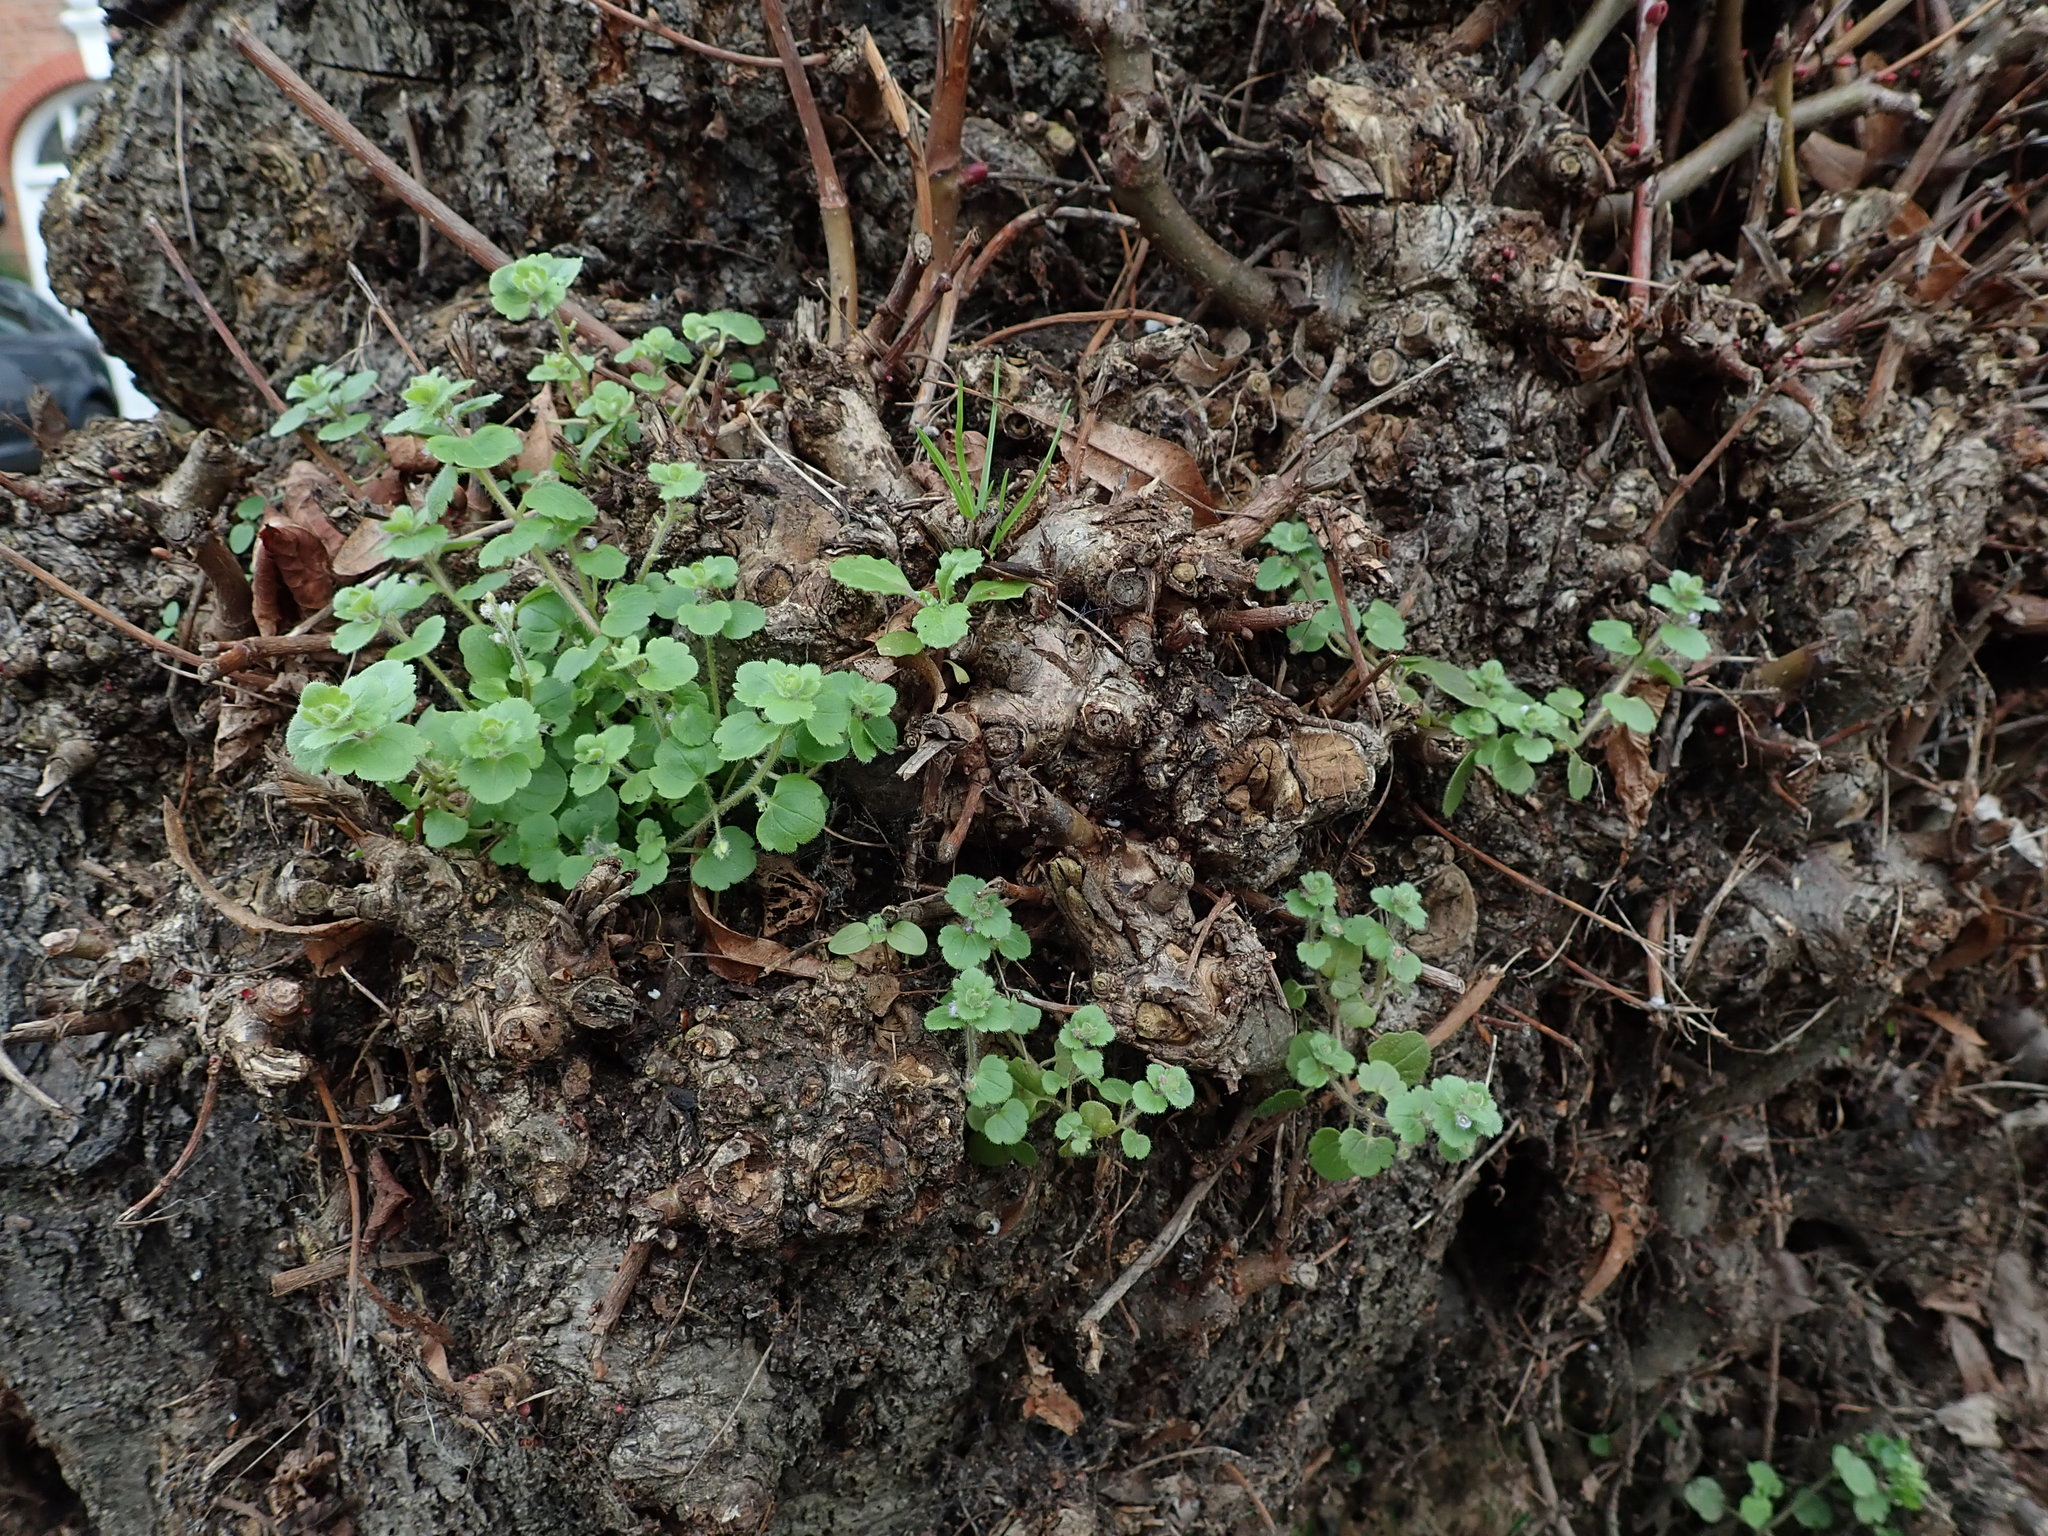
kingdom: Plantae
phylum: Tracheophyta
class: Magnoliopsida
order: Lamiales
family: Plantaginaceae
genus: Veronica
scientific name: Veronica sublobata
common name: False ivy-leaved speedwell
